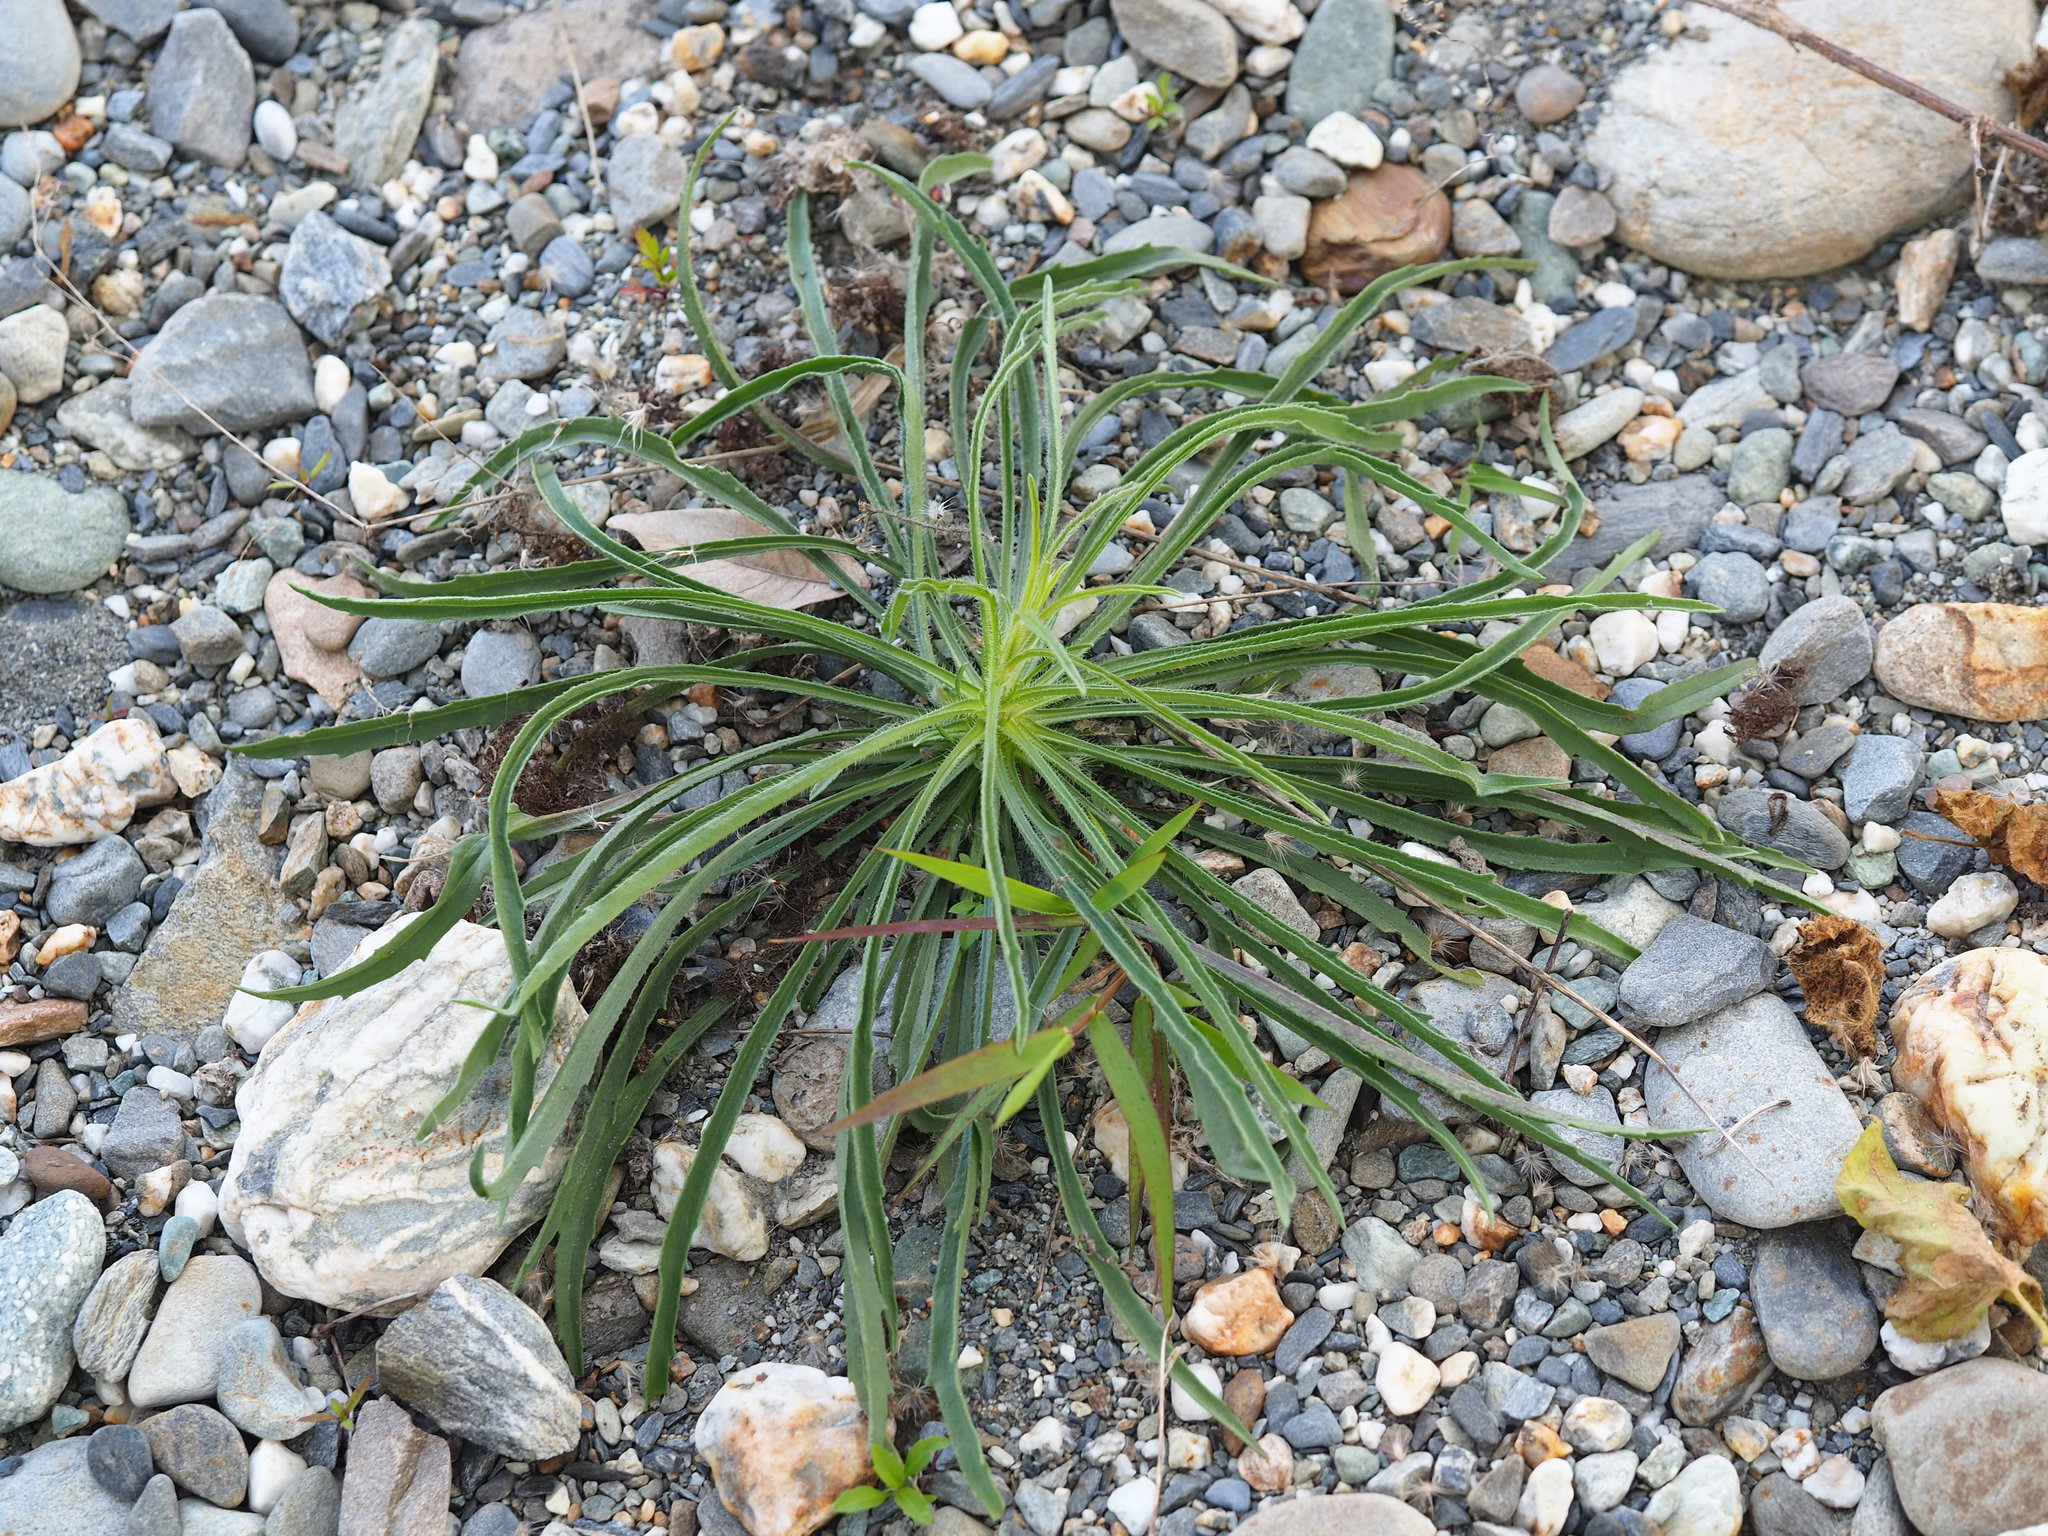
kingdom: Plantae
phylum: Tracheophyta
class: Magnoliopsida
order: Asterales
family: Asteraceae
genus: Heteropappus
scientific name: Heteropappus altaicus
